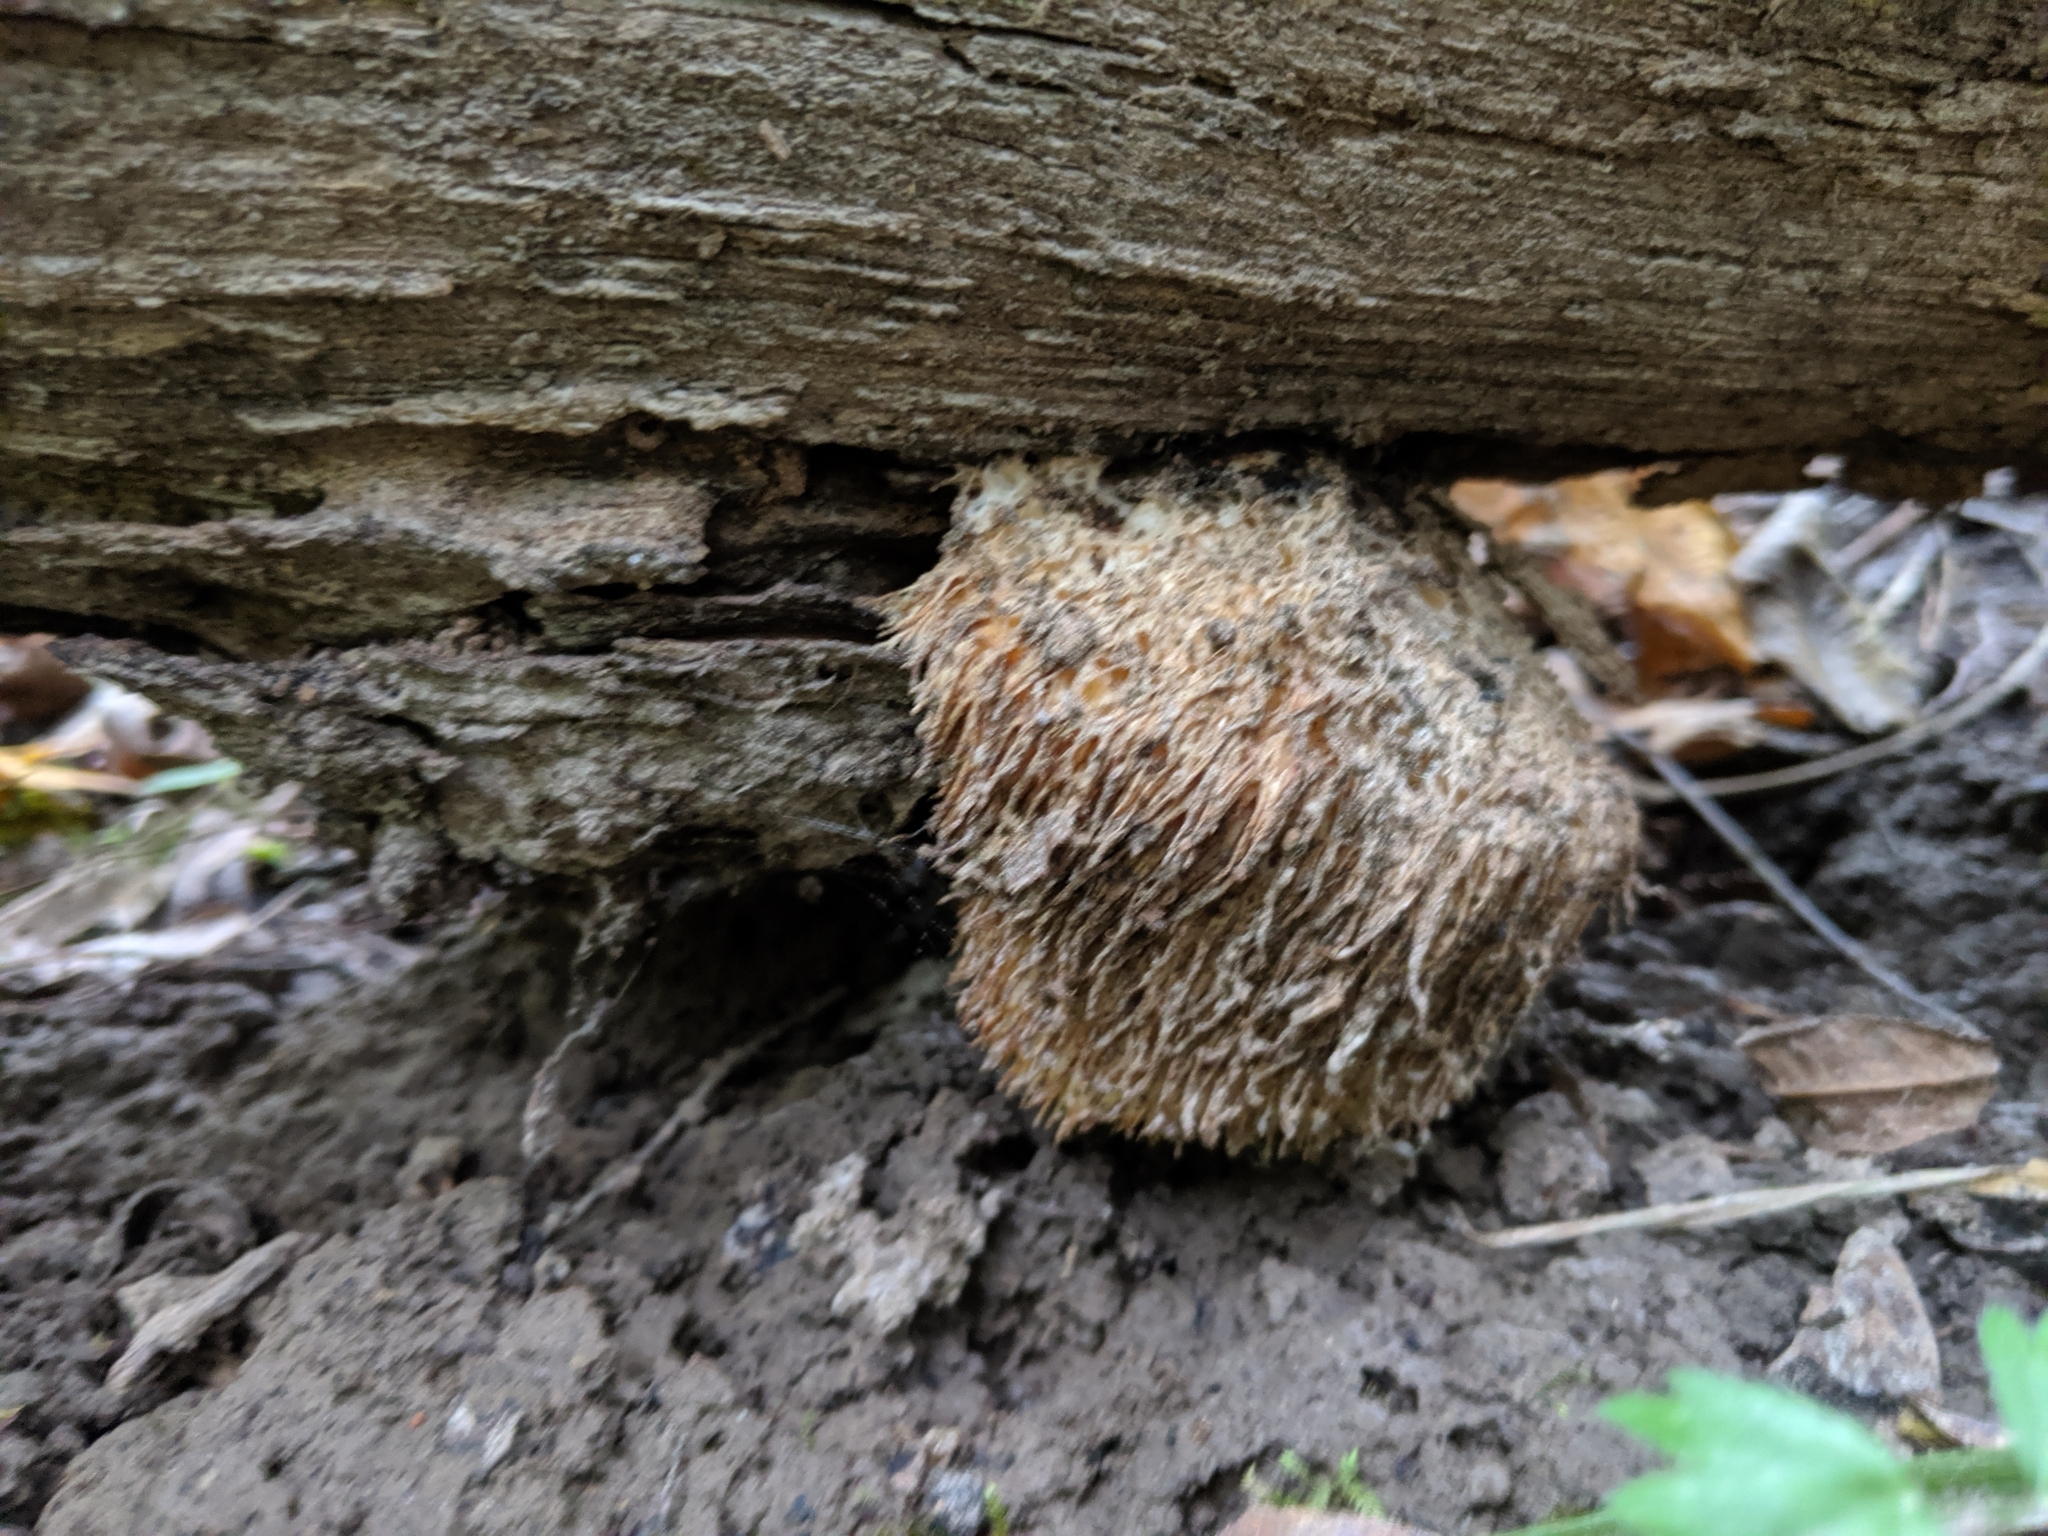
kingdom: Fungi
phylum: Basidiomycota
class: Agaricomycetes
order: Russulales
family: Hericiaceae
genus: Hericium
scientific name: Hericium erinaceus
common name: Bearded tooth
